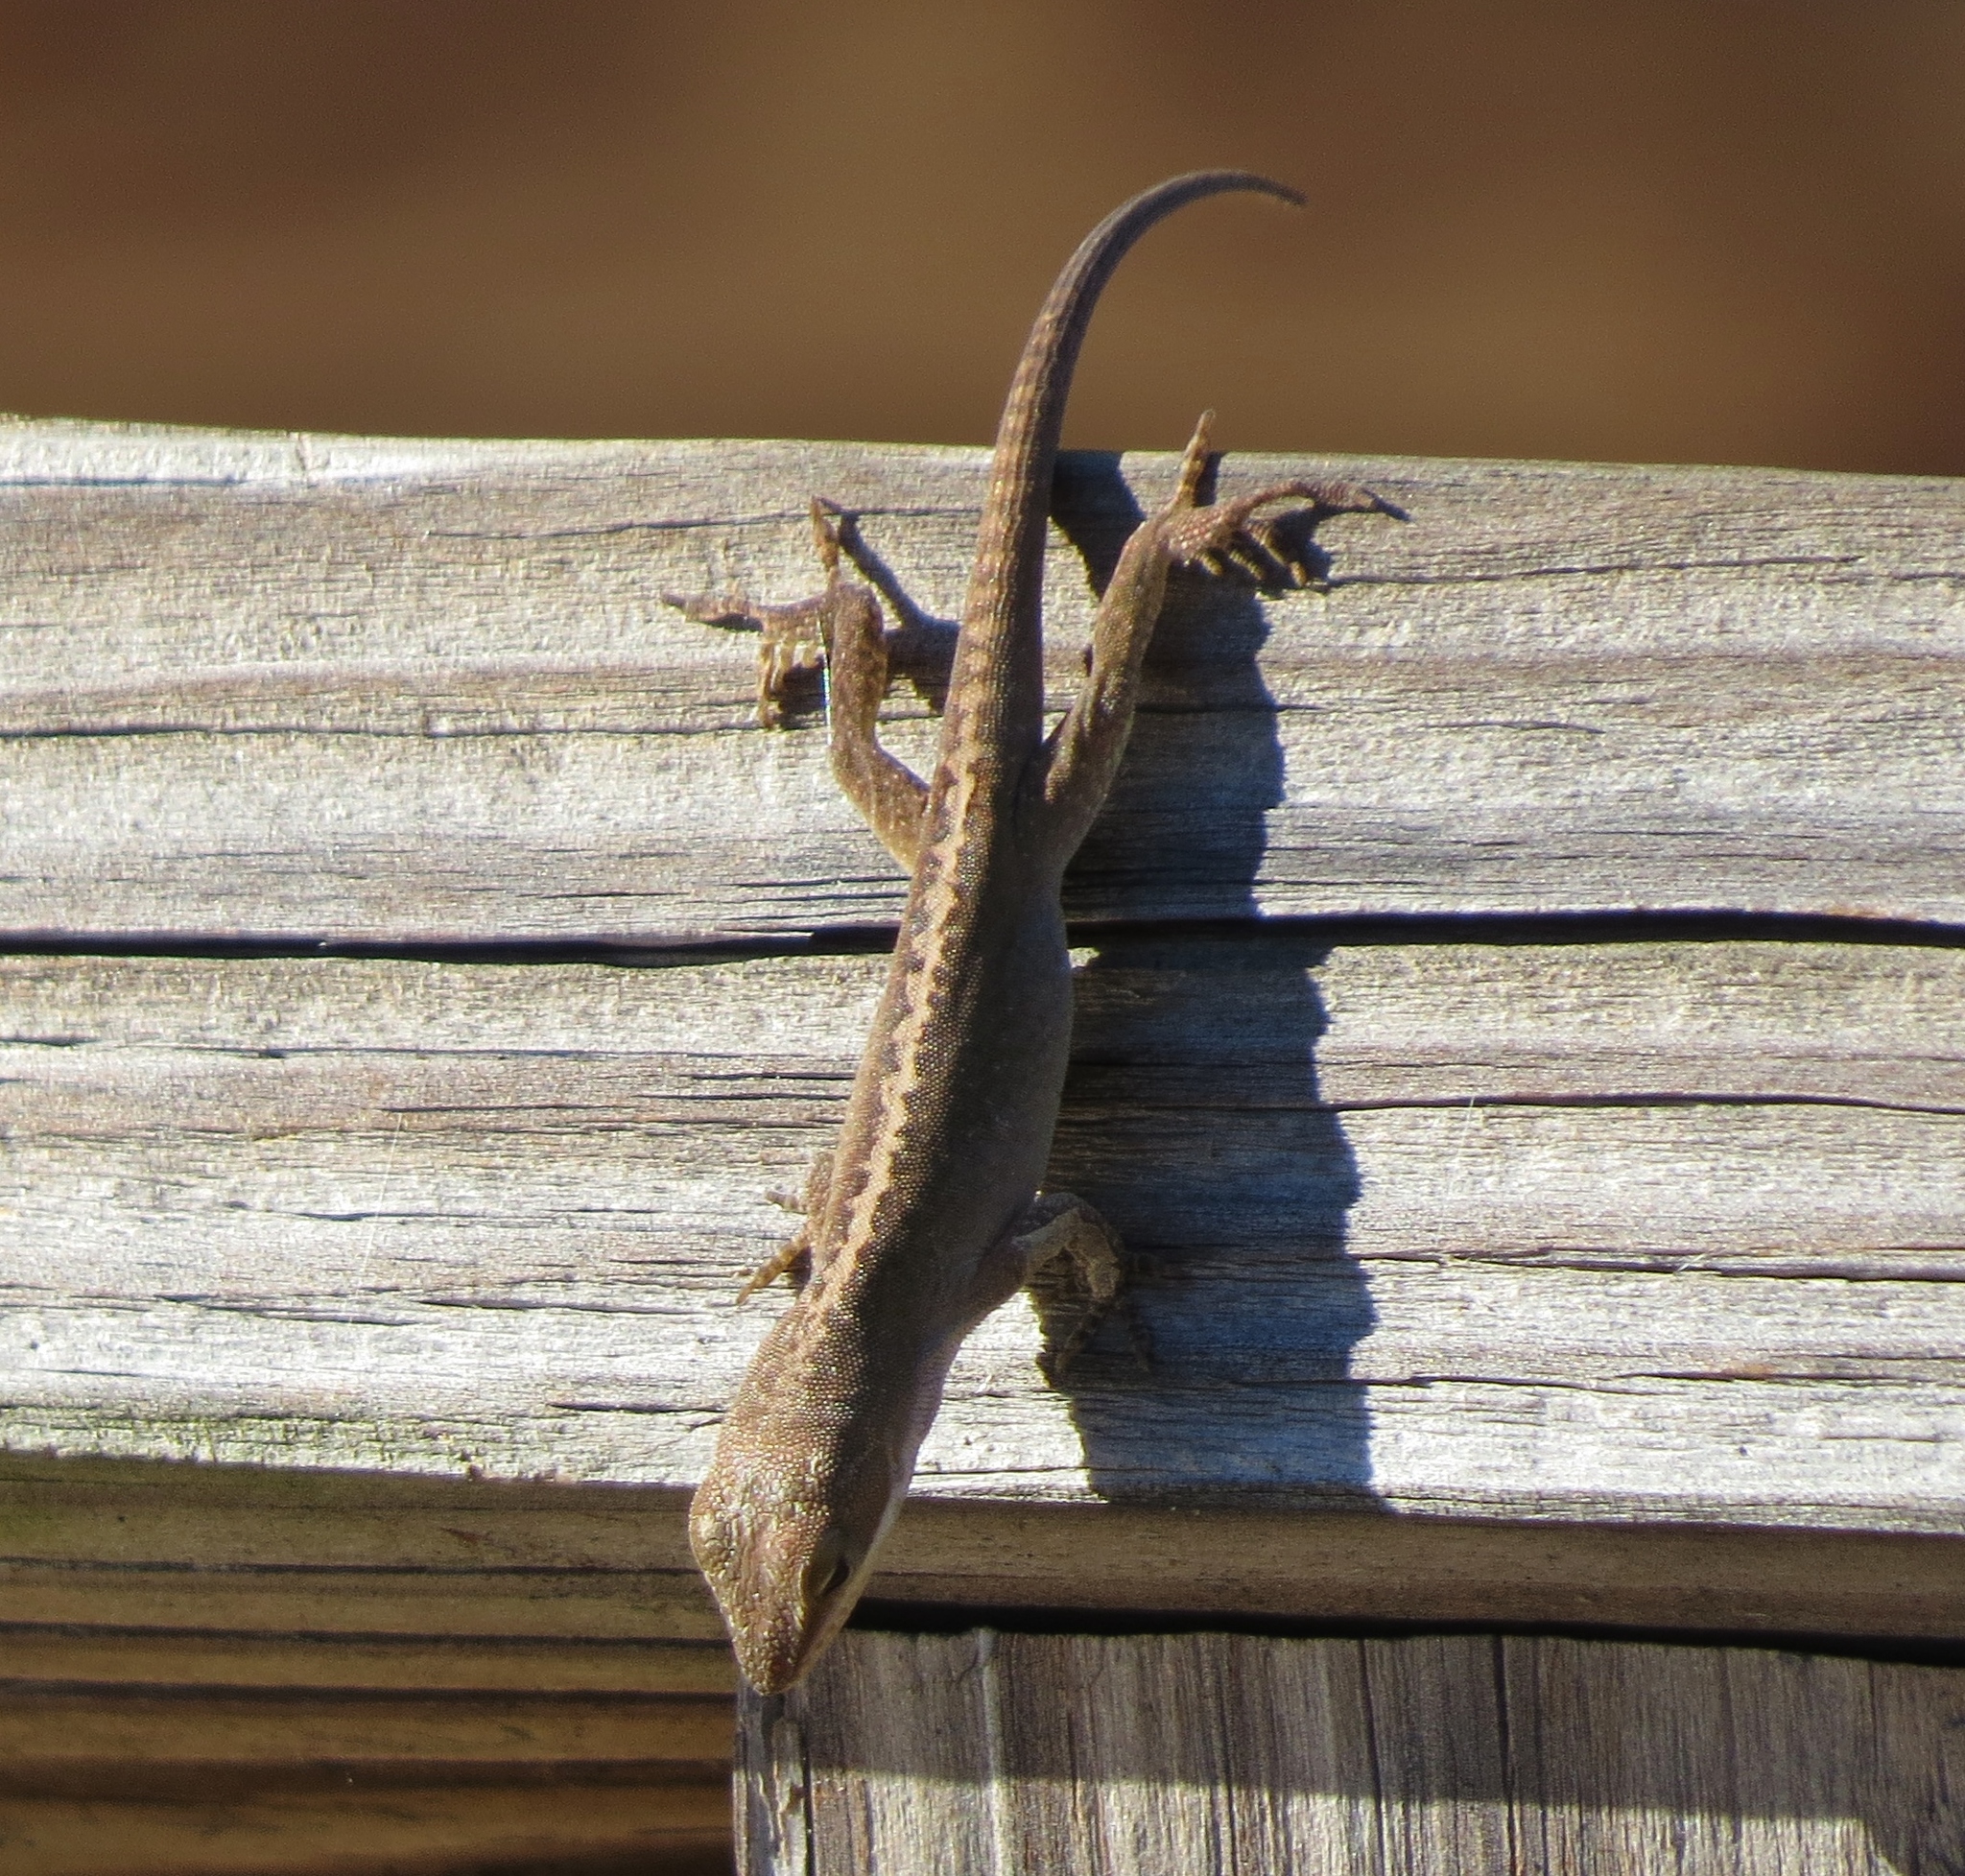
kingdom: Animalia
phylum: Chordata
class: Squamata
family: Dactyloidae
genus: Anolis
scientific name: Anolis carolinensis
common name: Green anole
